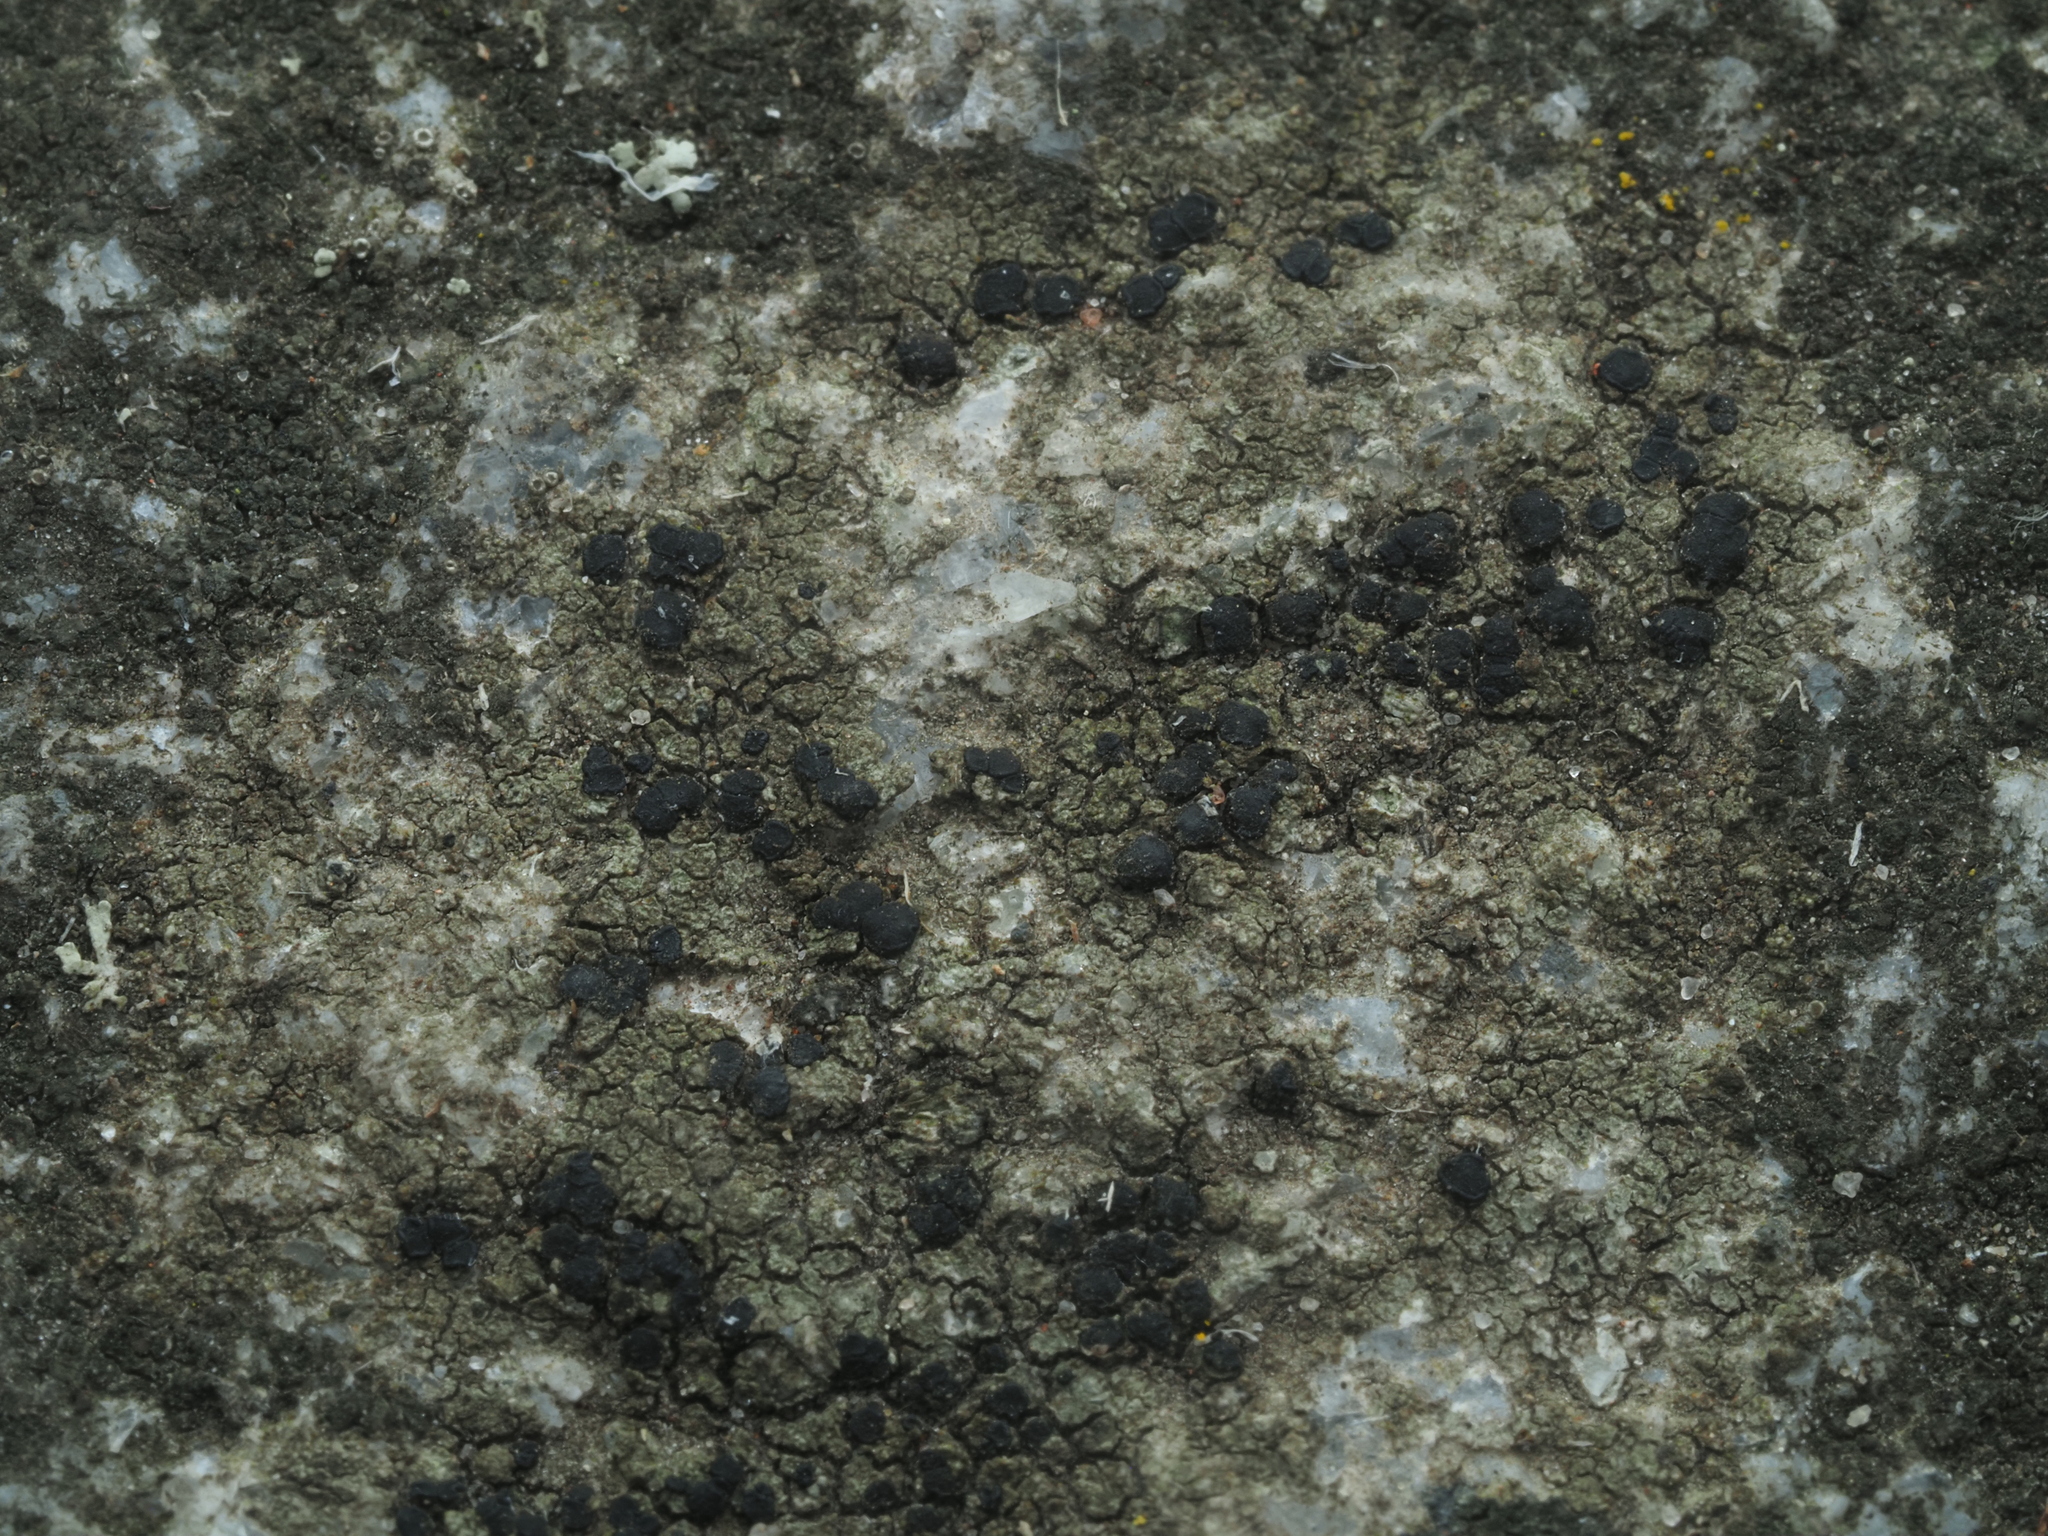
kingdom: Fungi
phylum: Ascomycota
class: Lecanoromycetes
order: Lecanorales
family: Lecanoraceae
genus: Lecidella
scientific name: Lecidella stigmatea
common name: Limestone disc lichen
